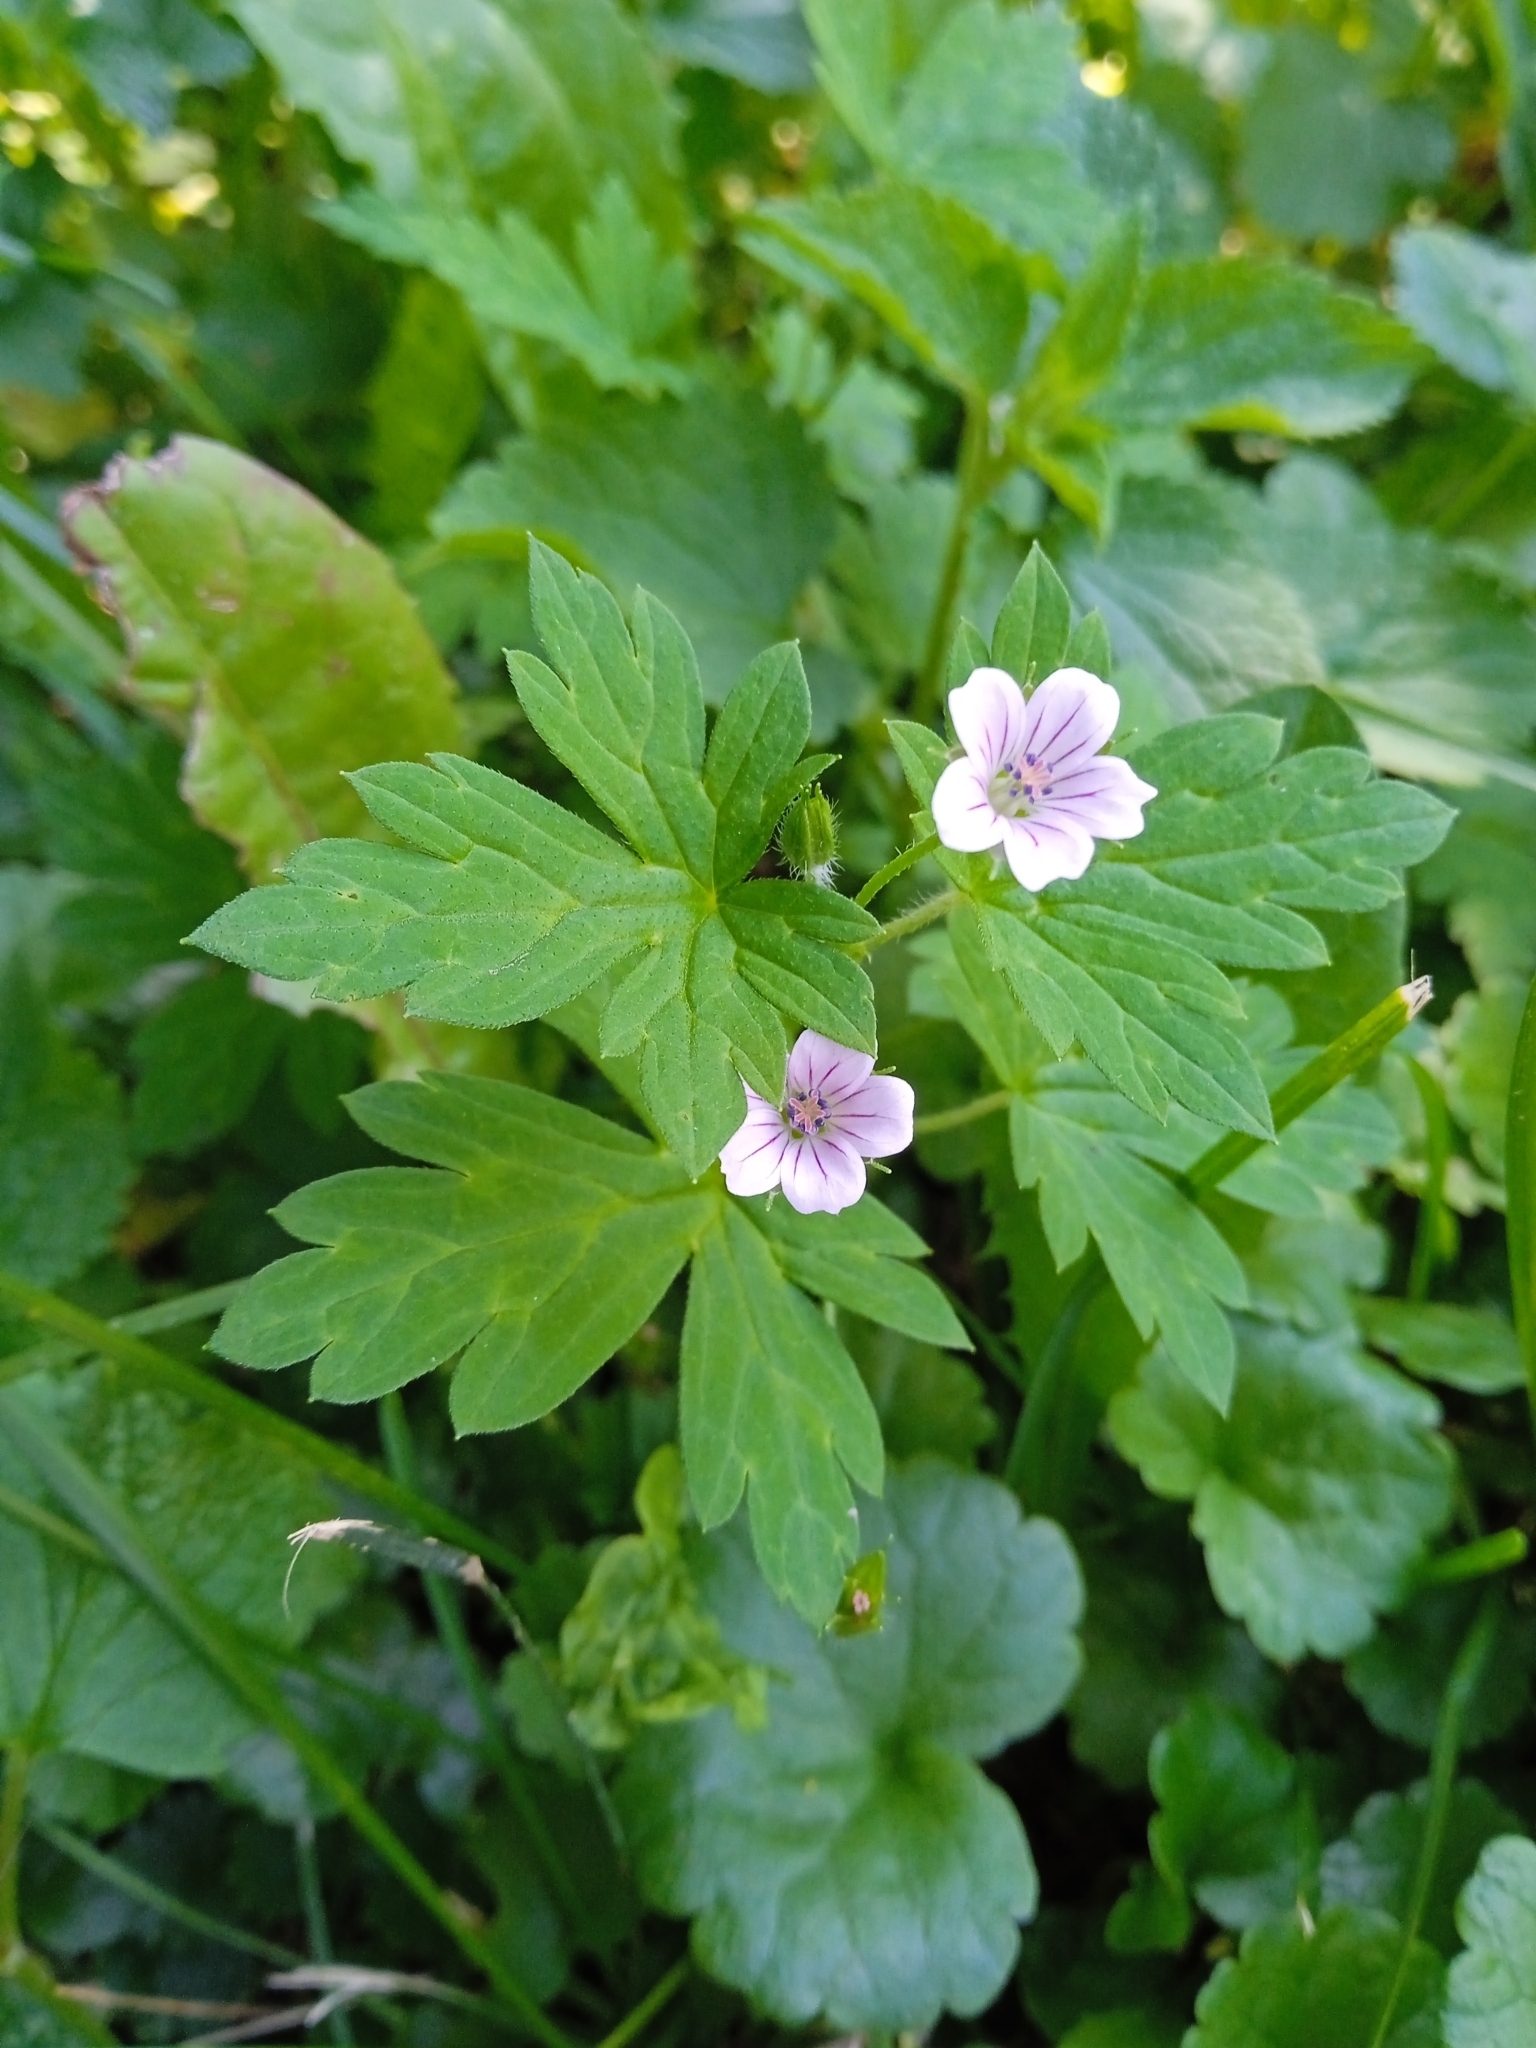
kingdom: Plantae
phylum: Tracheophyta
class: Magnoliopsida
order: Geraniales
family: Geraniaceae
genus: Geranium
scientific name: Geranium sibiricum
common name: Siberian crane's-bill
